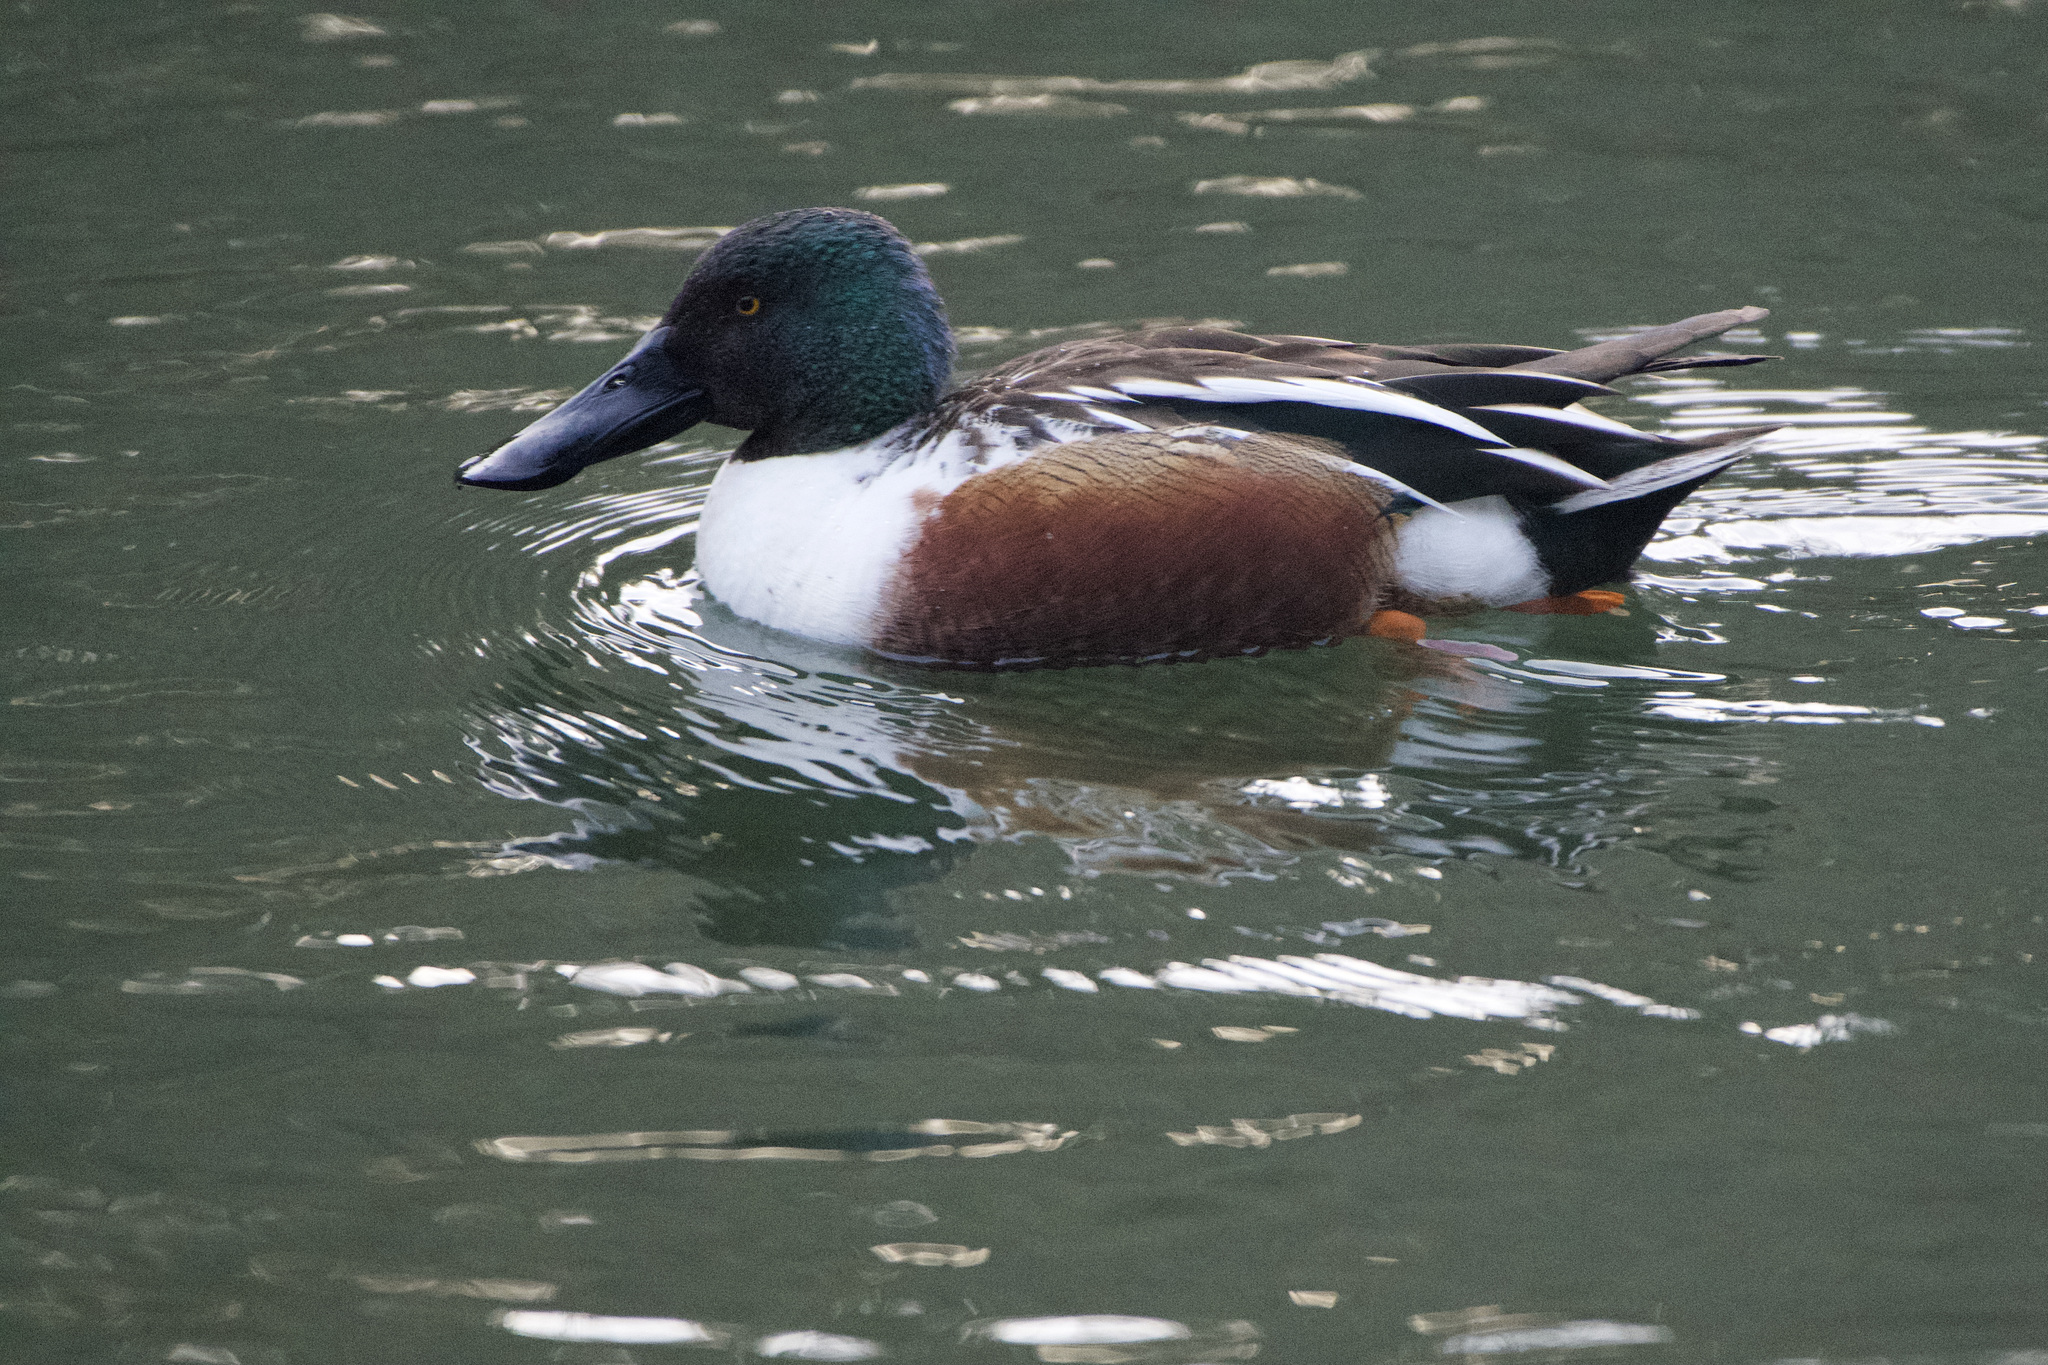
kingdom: Animalia
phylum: Chordata
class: Aves
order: Anseriformes
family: Anatidae
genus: Spatula
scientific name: Spatula clypeata
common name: Northern shoveler
